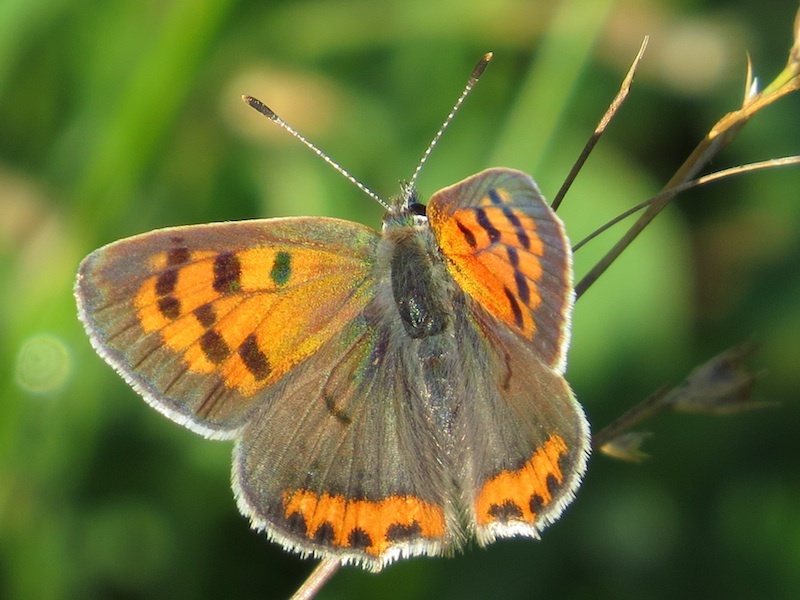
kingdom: Animalia
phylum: Arthropoda
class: Insecta
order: Lepidoptera
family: Lycaenidae
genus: Lycaena
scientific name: Lycaena hypophlaeas
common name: American copper
